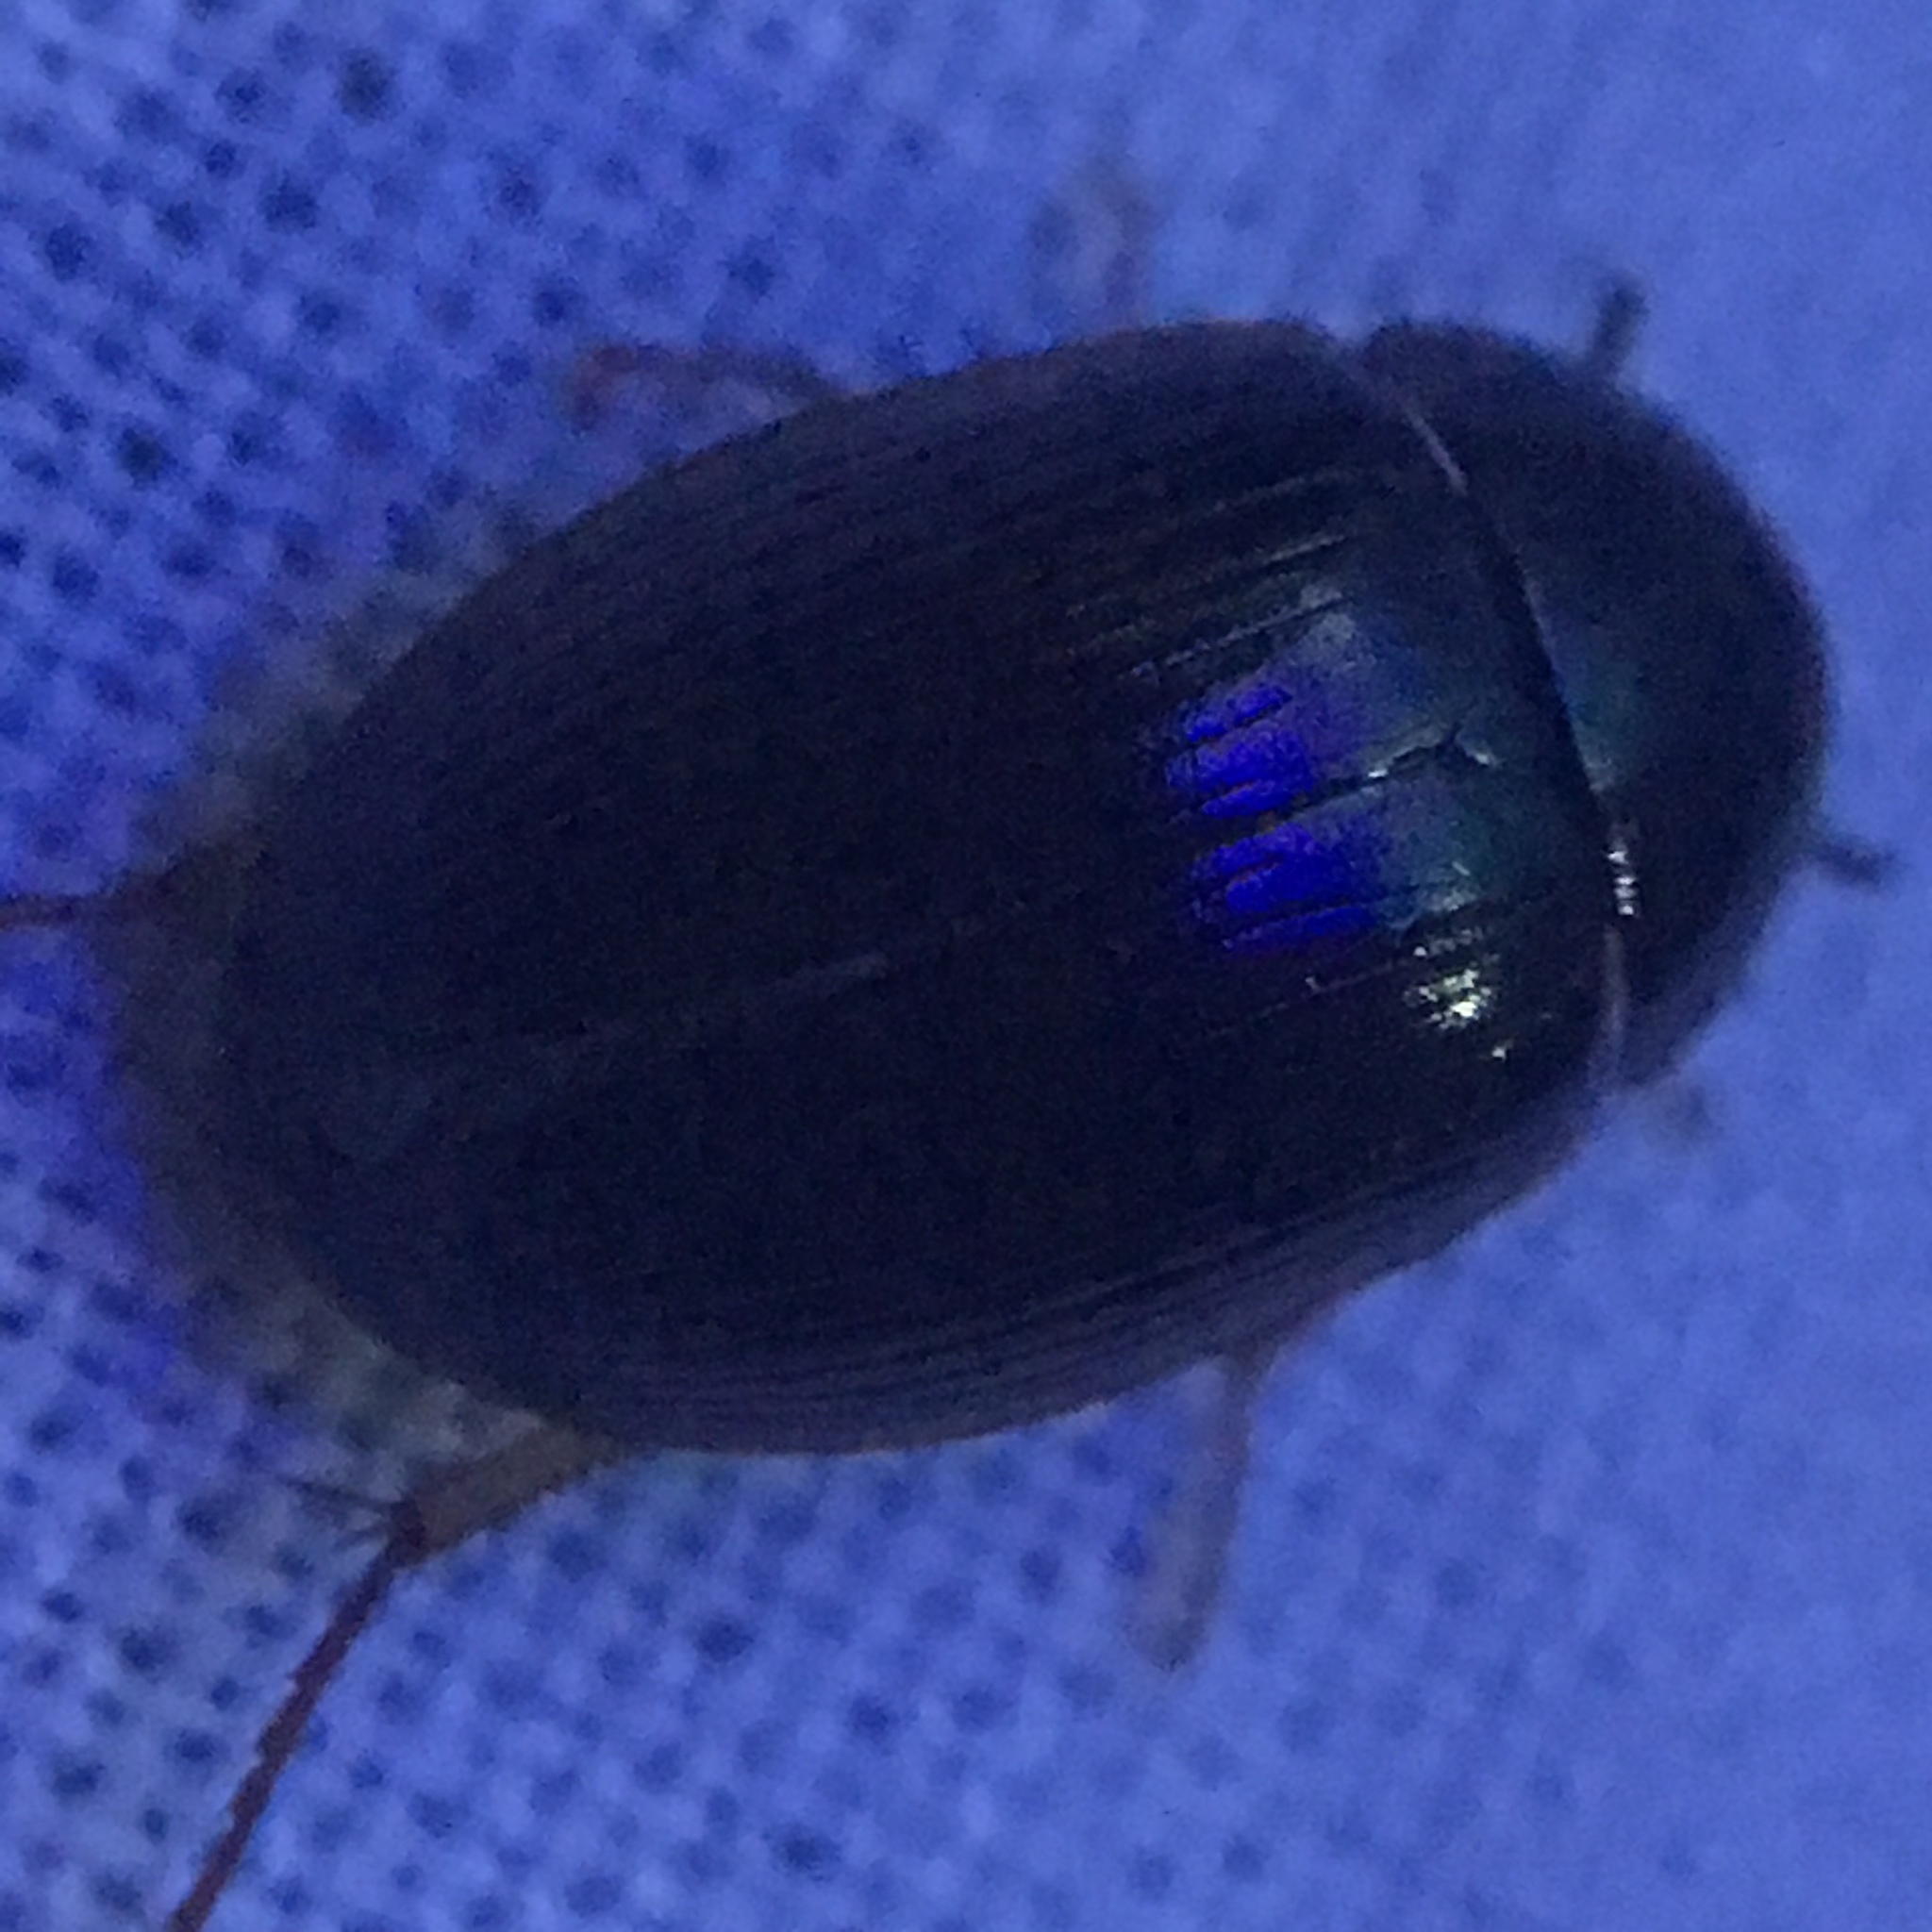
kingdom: Animalia
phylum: Arthropoda
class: Insecta
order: Coleoptera
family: Hydrophilidae
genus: Hydrobius
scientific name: Hydrobius fuscipes
